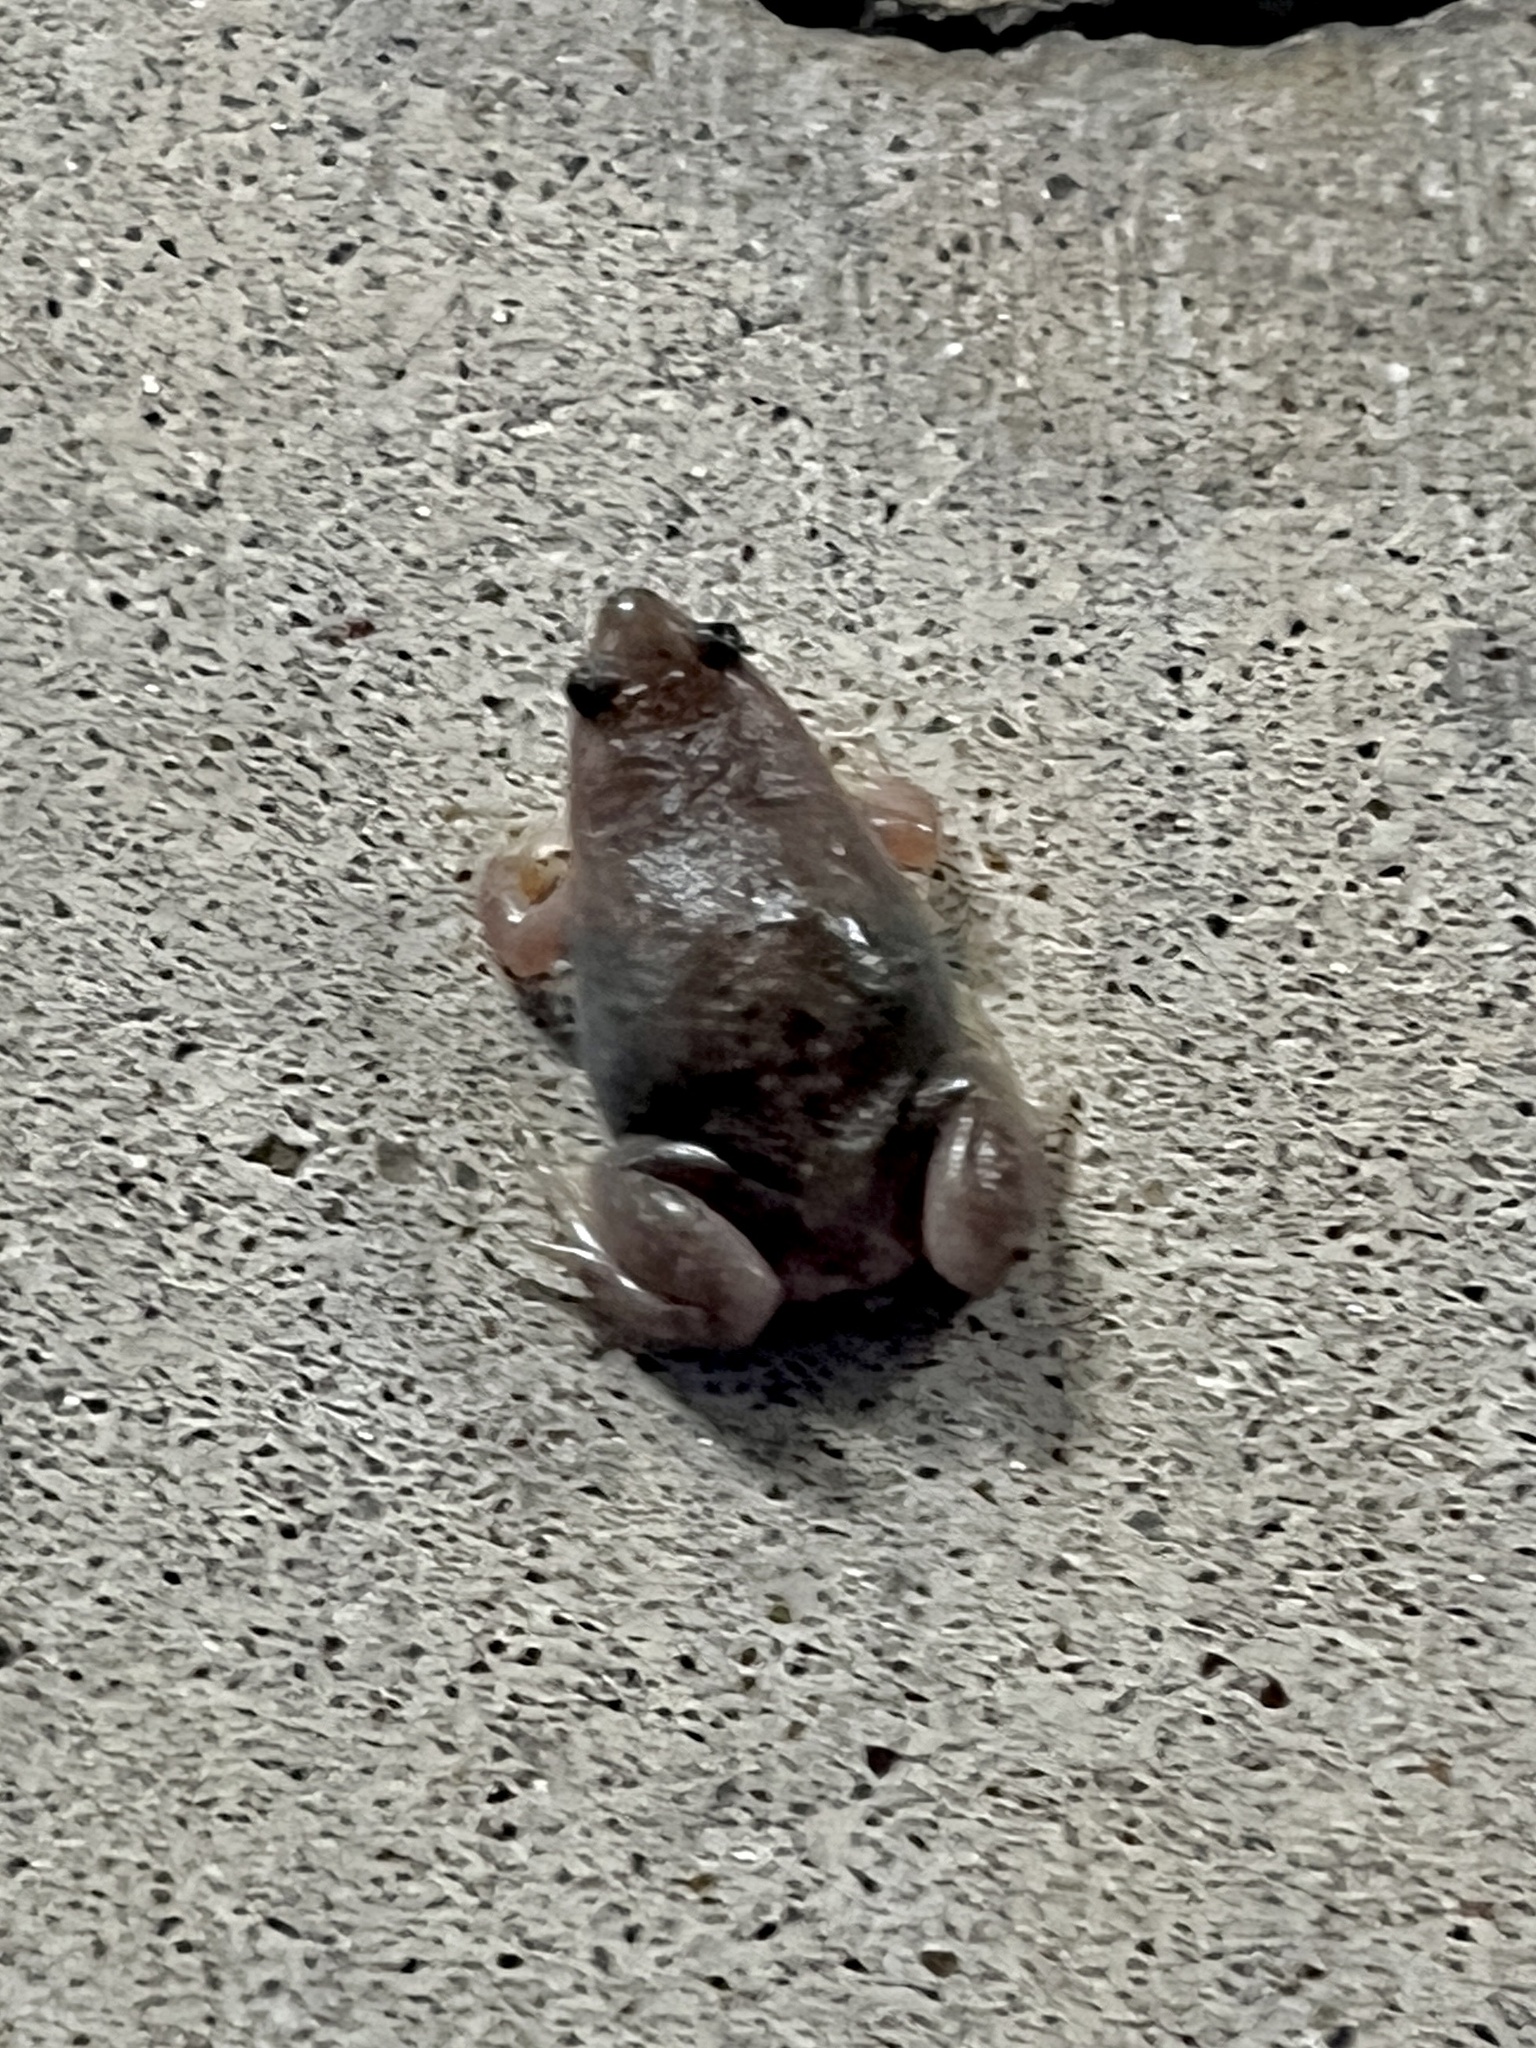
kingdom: Animalia
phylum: Chordata
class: Amphibia
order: Anura
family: Microhylidae
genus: Gastrophryne
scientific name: Gastrophryne olivacea
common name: Great plains narrow-mouthed toad
